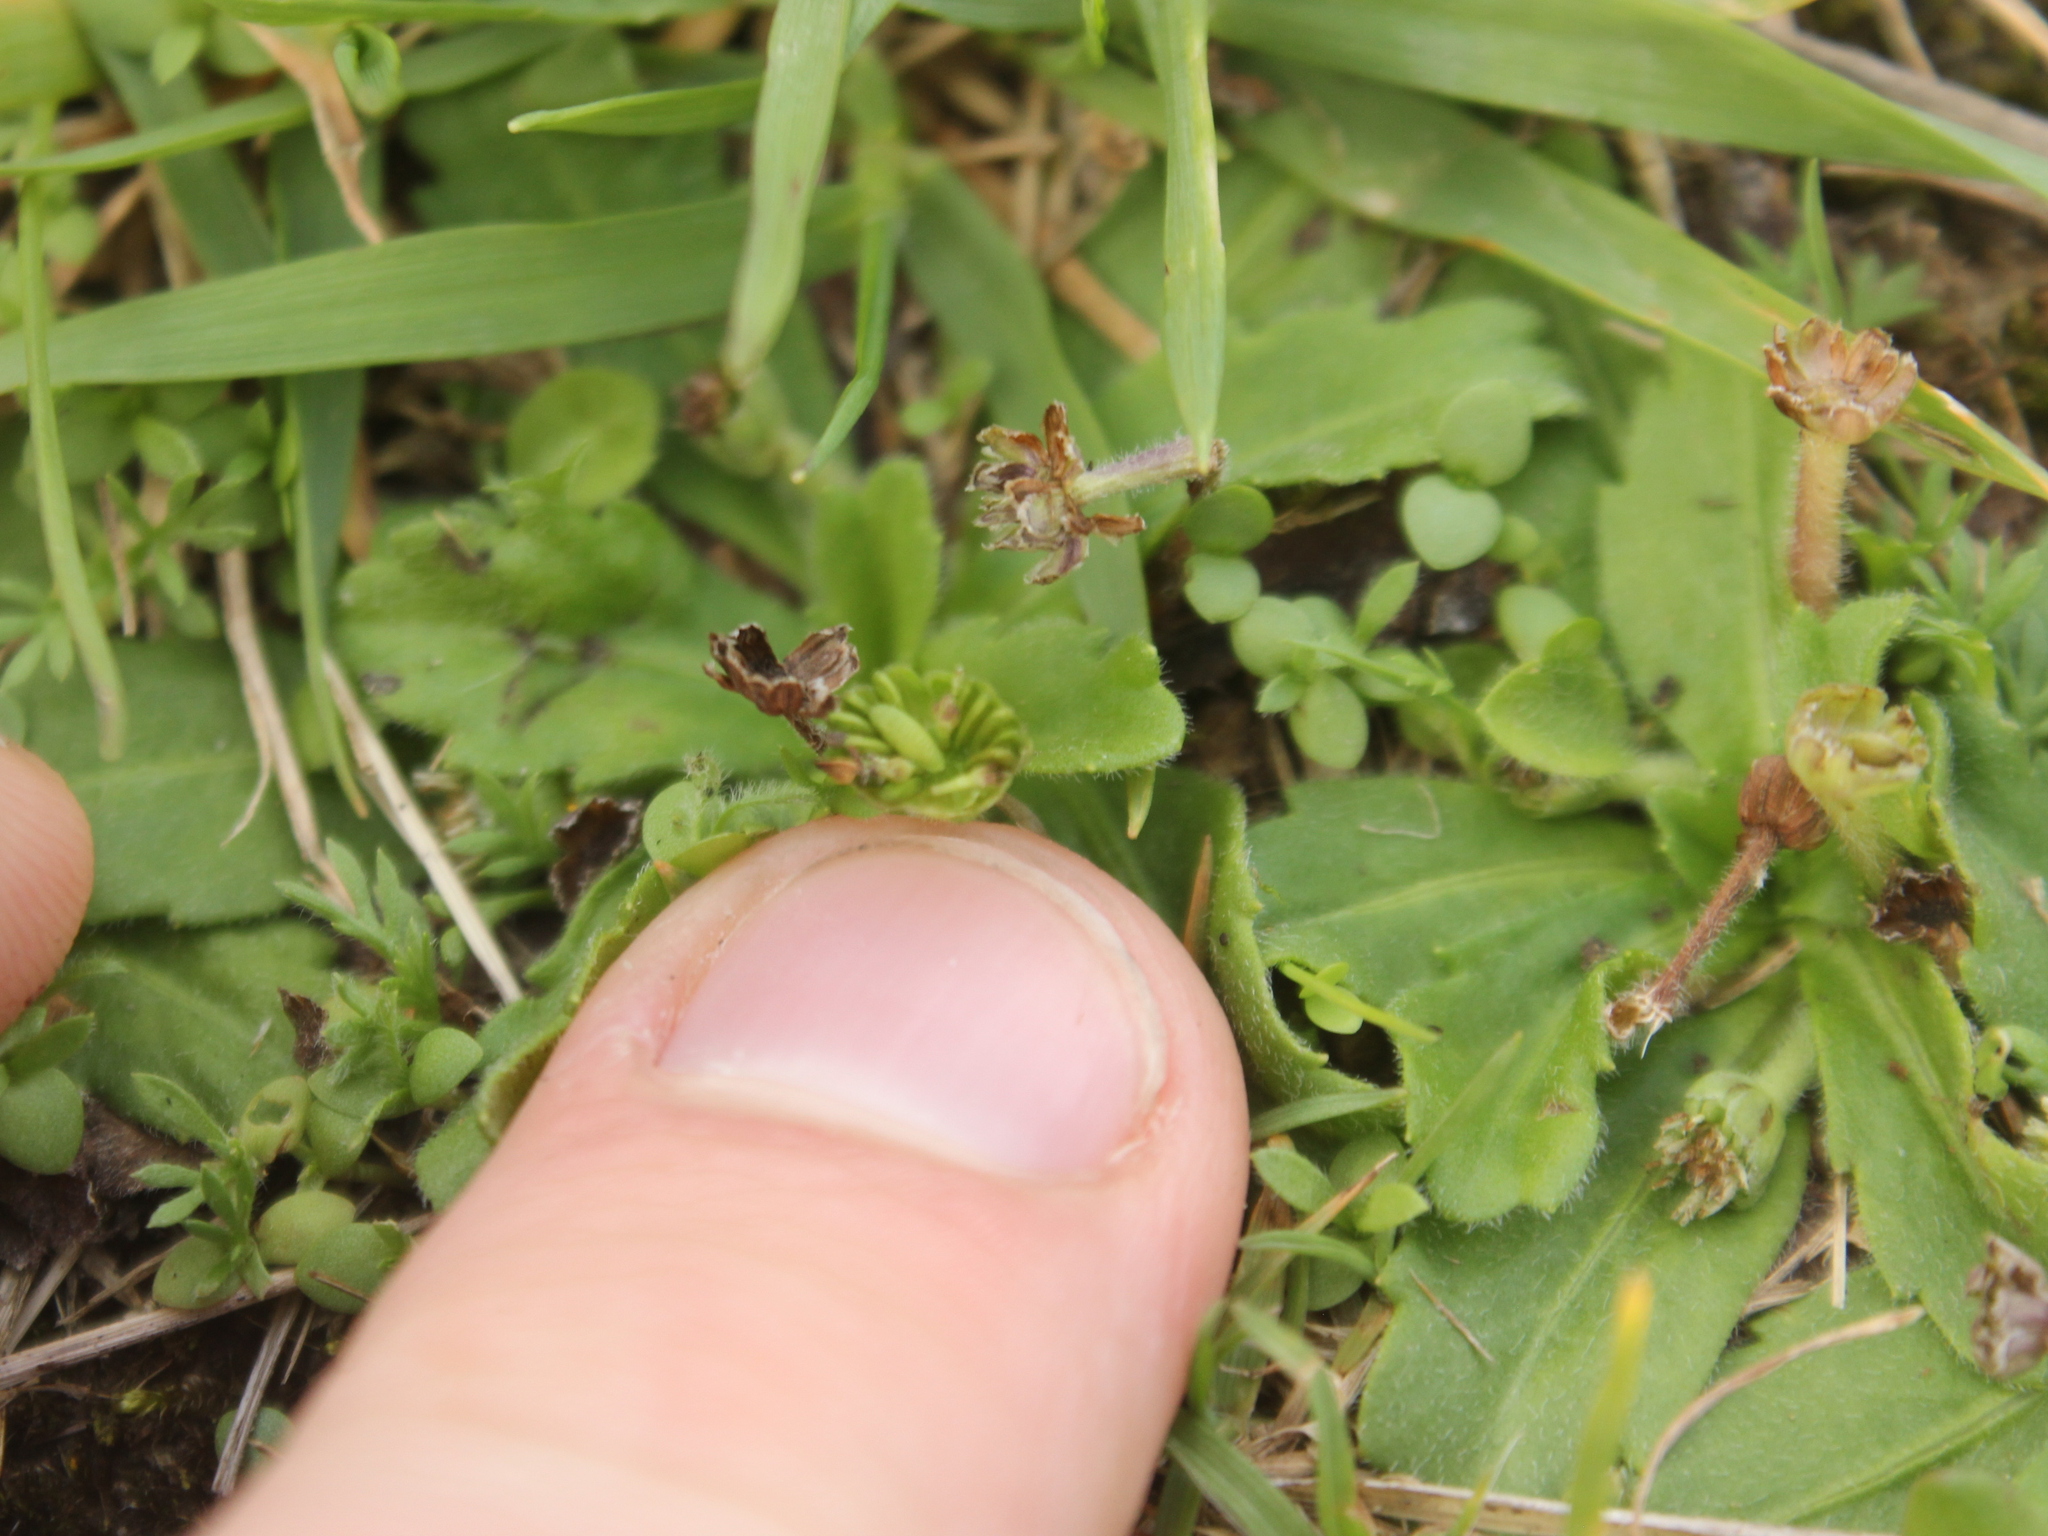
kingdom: Plantae
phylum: Tracheophyta
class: Magnoliopsida
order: Asterales
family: Asteraceae
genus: Solenogyne
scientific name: Solenogyne gunnii
